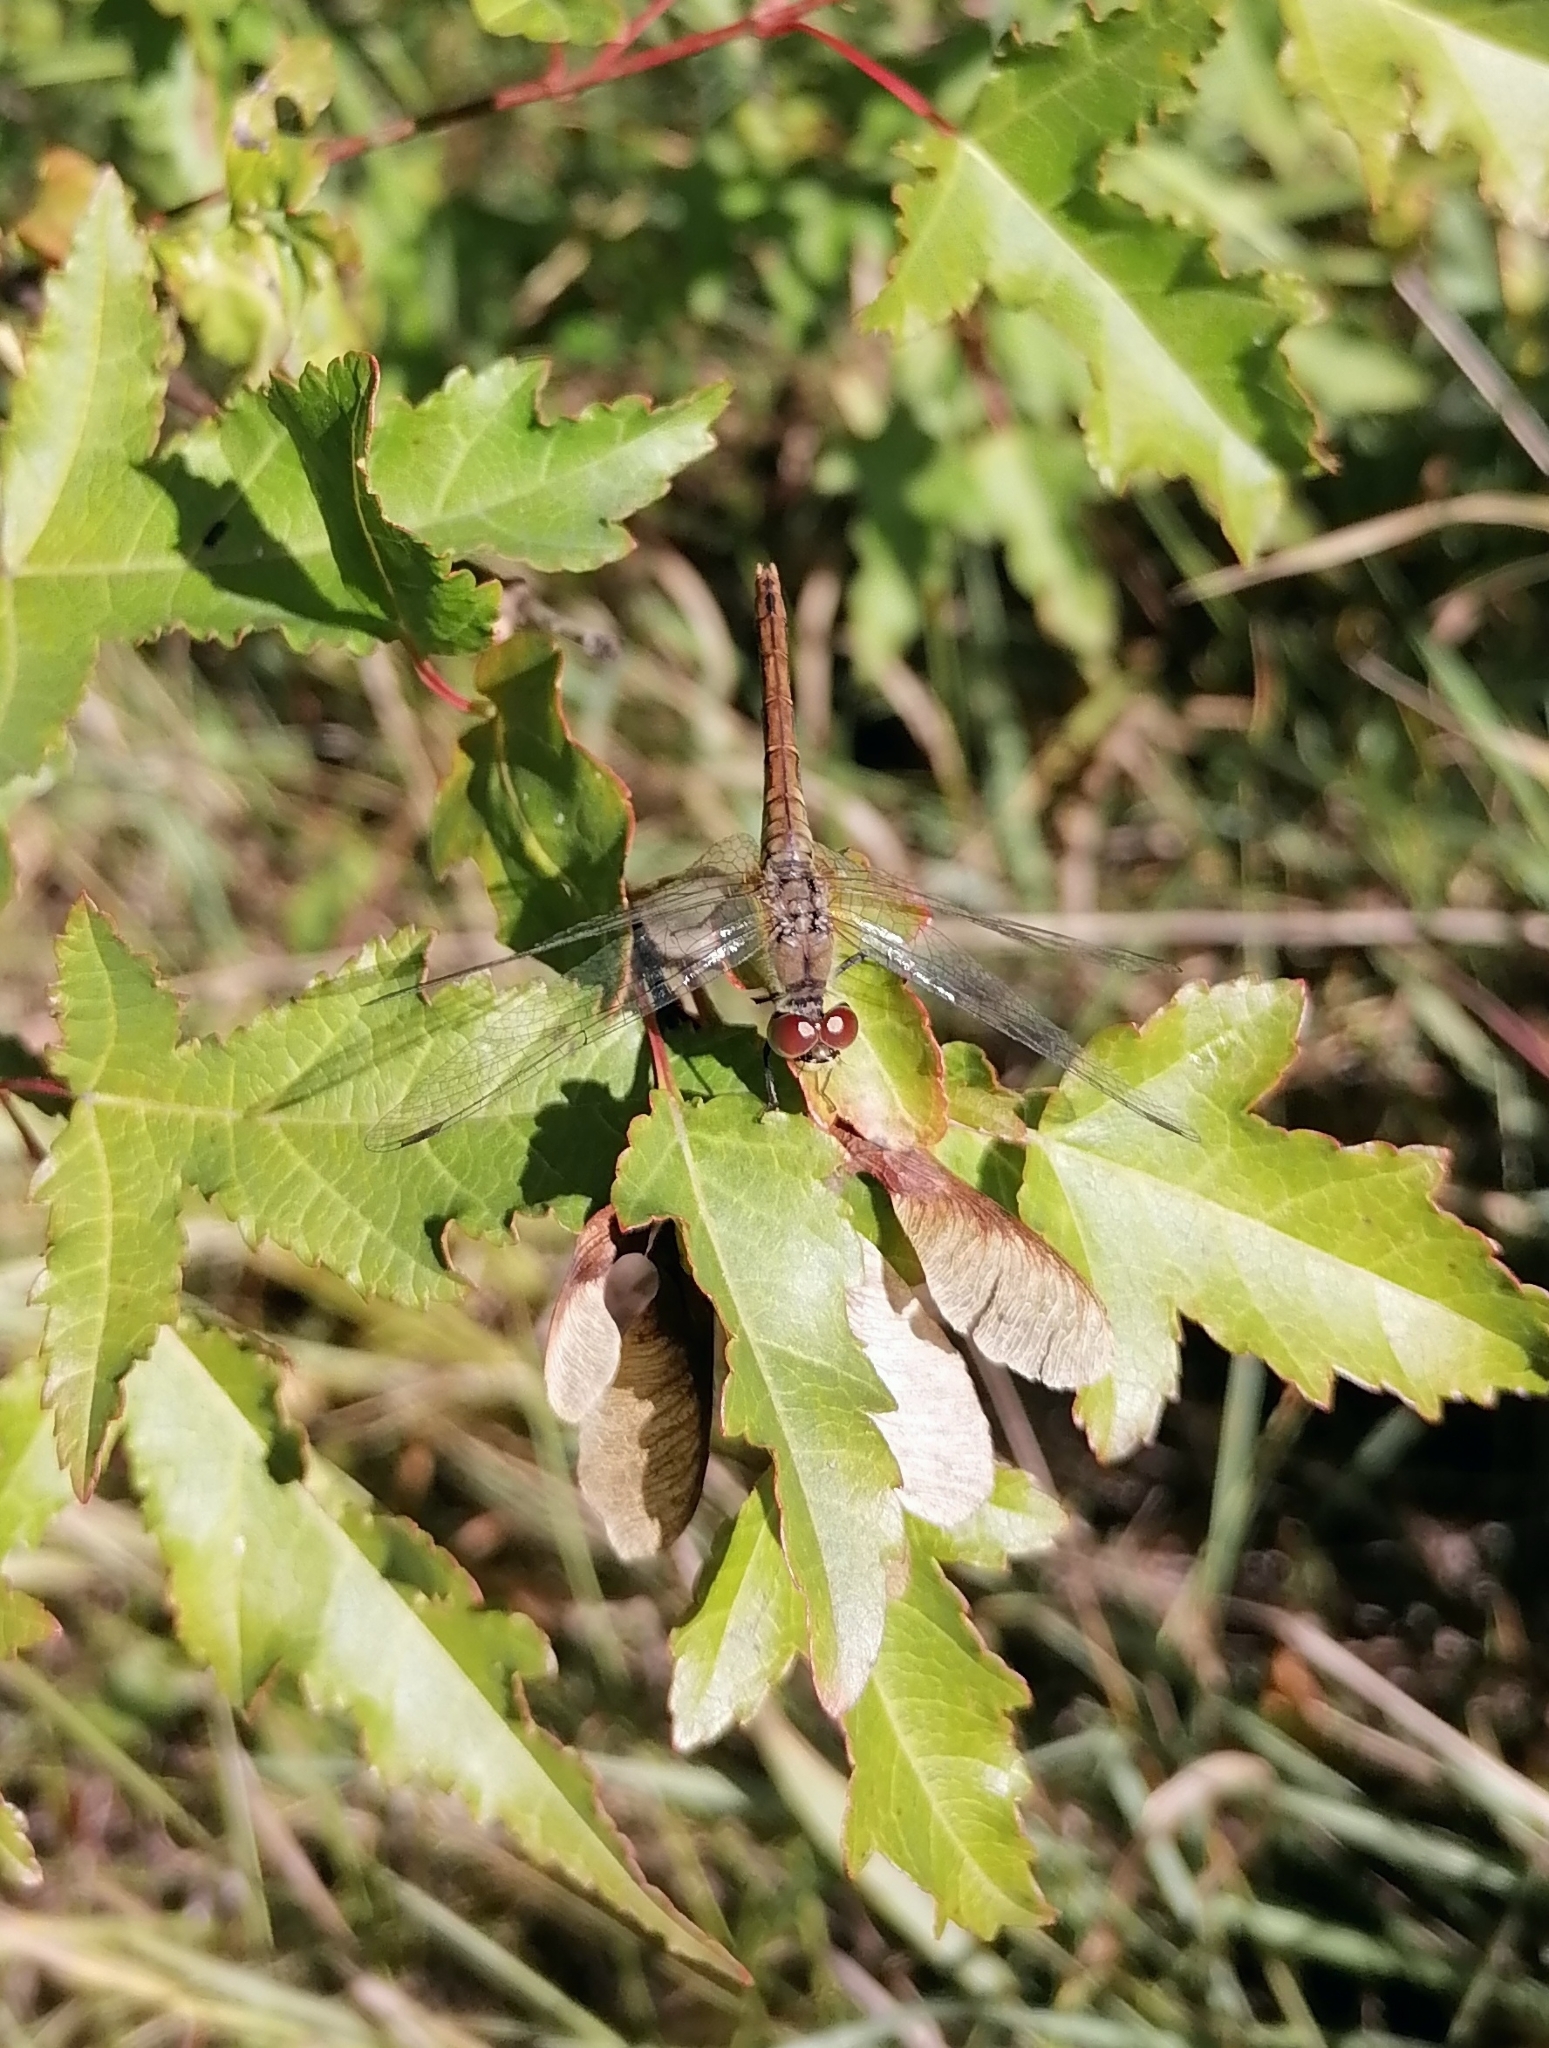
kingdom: Animalia
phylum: Arthropoda
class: Insecta
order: Odonata
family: Libellulidae
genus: Sympetrum
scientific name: Sympetrum sanguineum
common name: Ruddy darter
